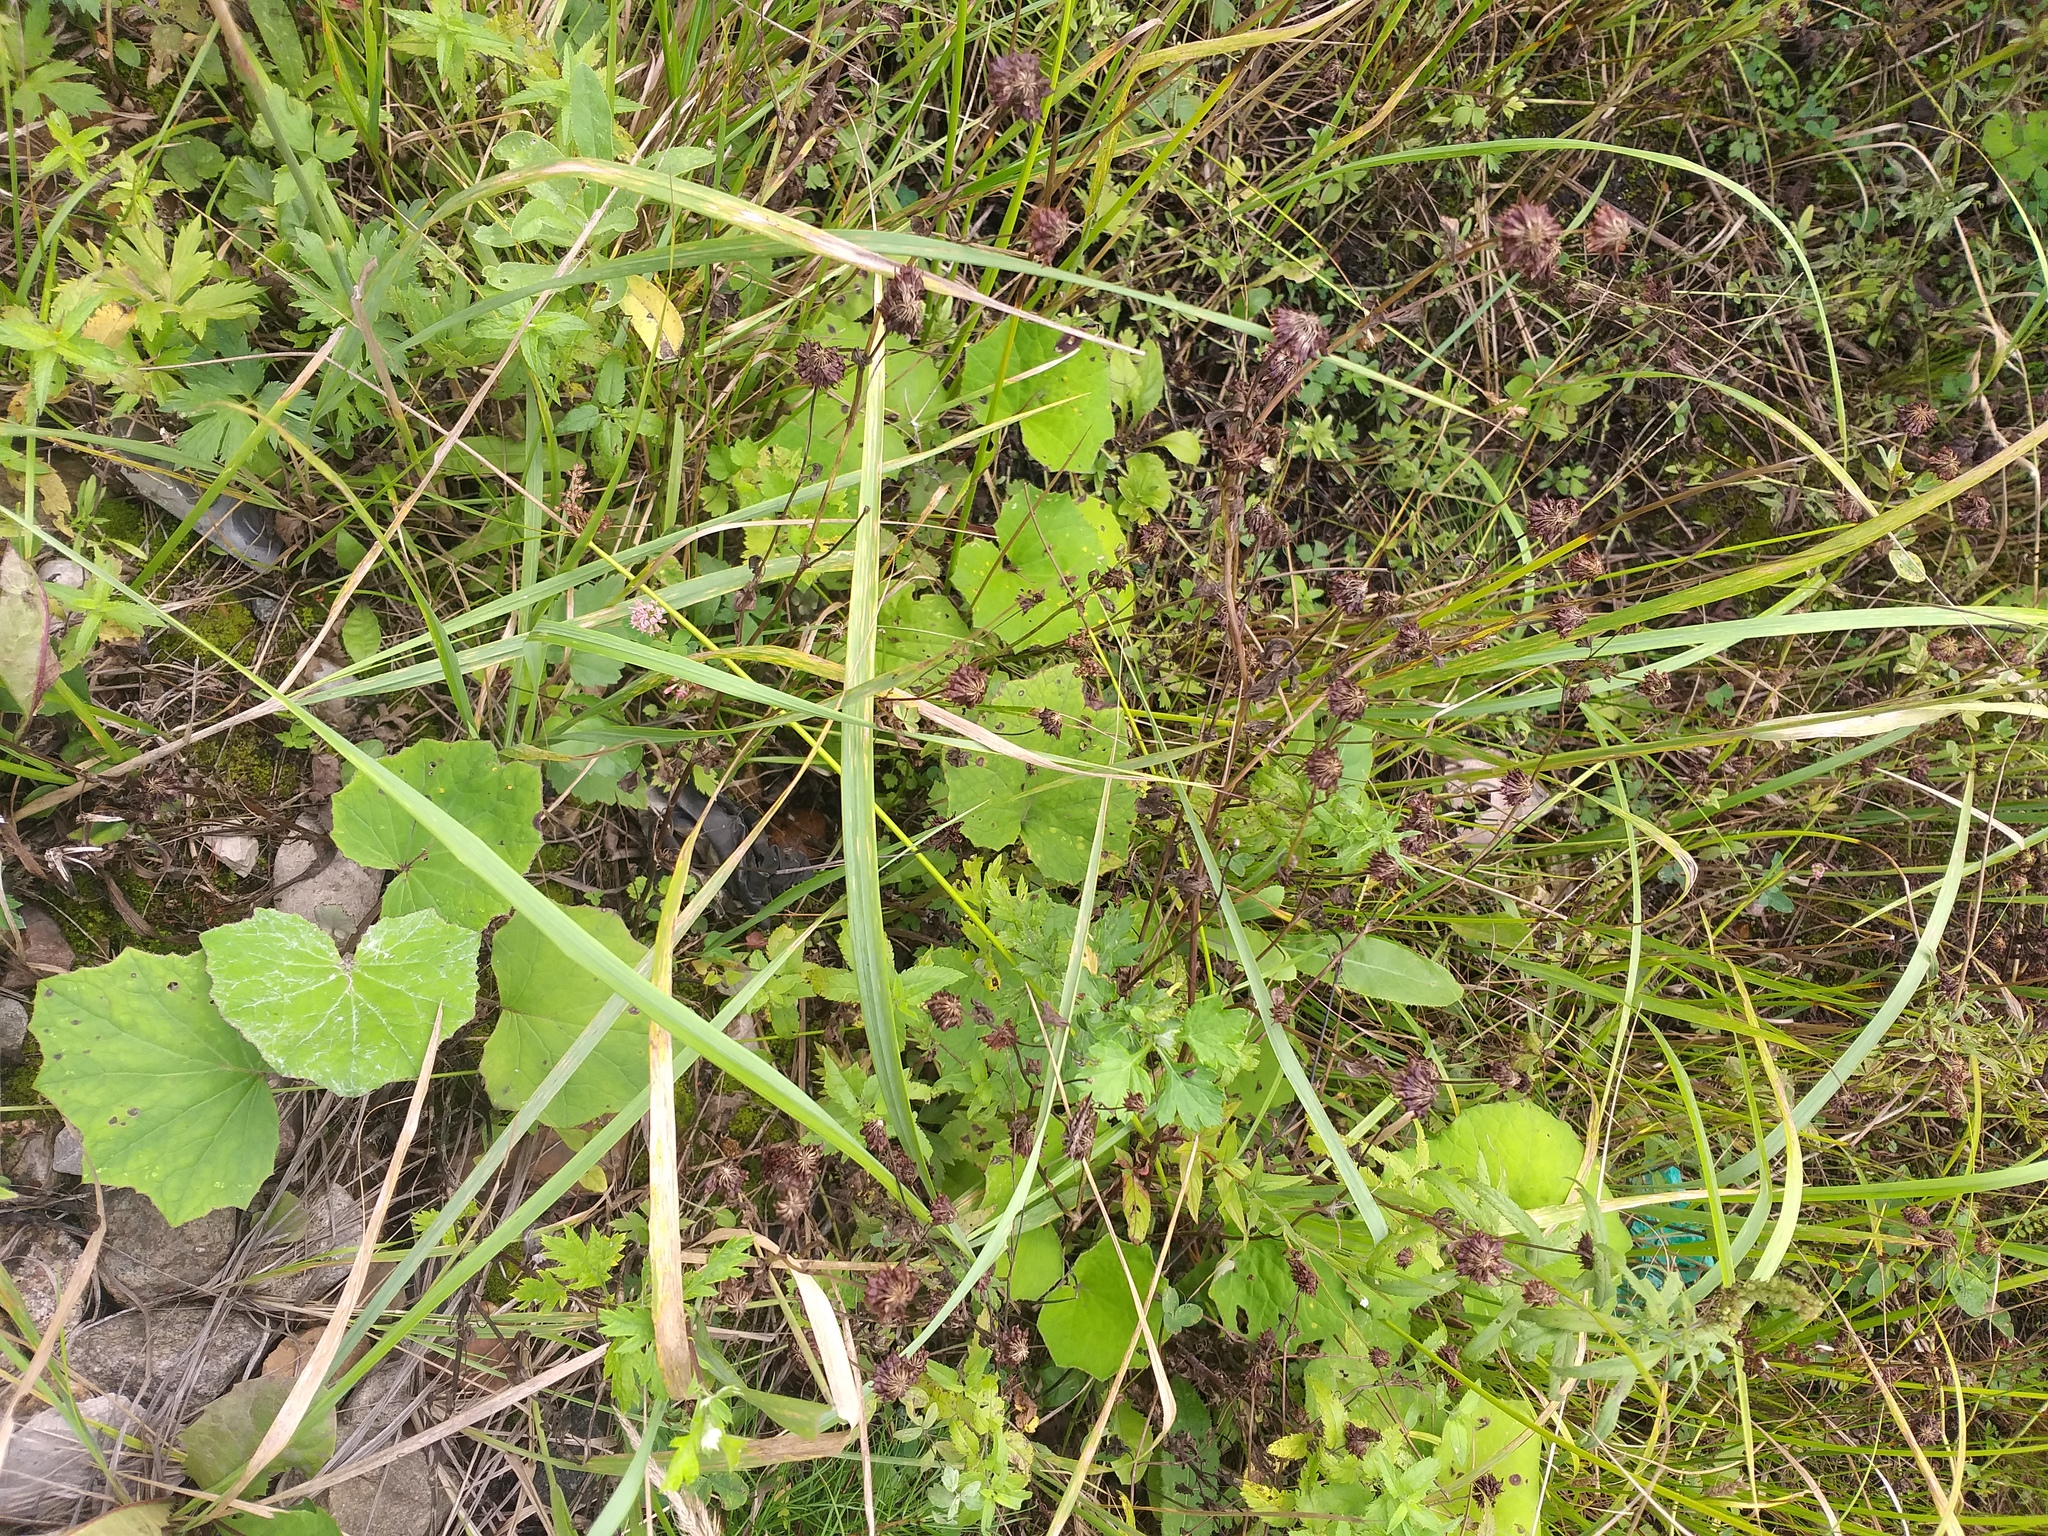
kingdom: Plantae
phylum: Tracheophyta
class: Magnoliopsida
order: Fabales
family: Fabaceae
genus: Trifolium
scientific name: Trifolium hybridum
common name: Alsike clover
